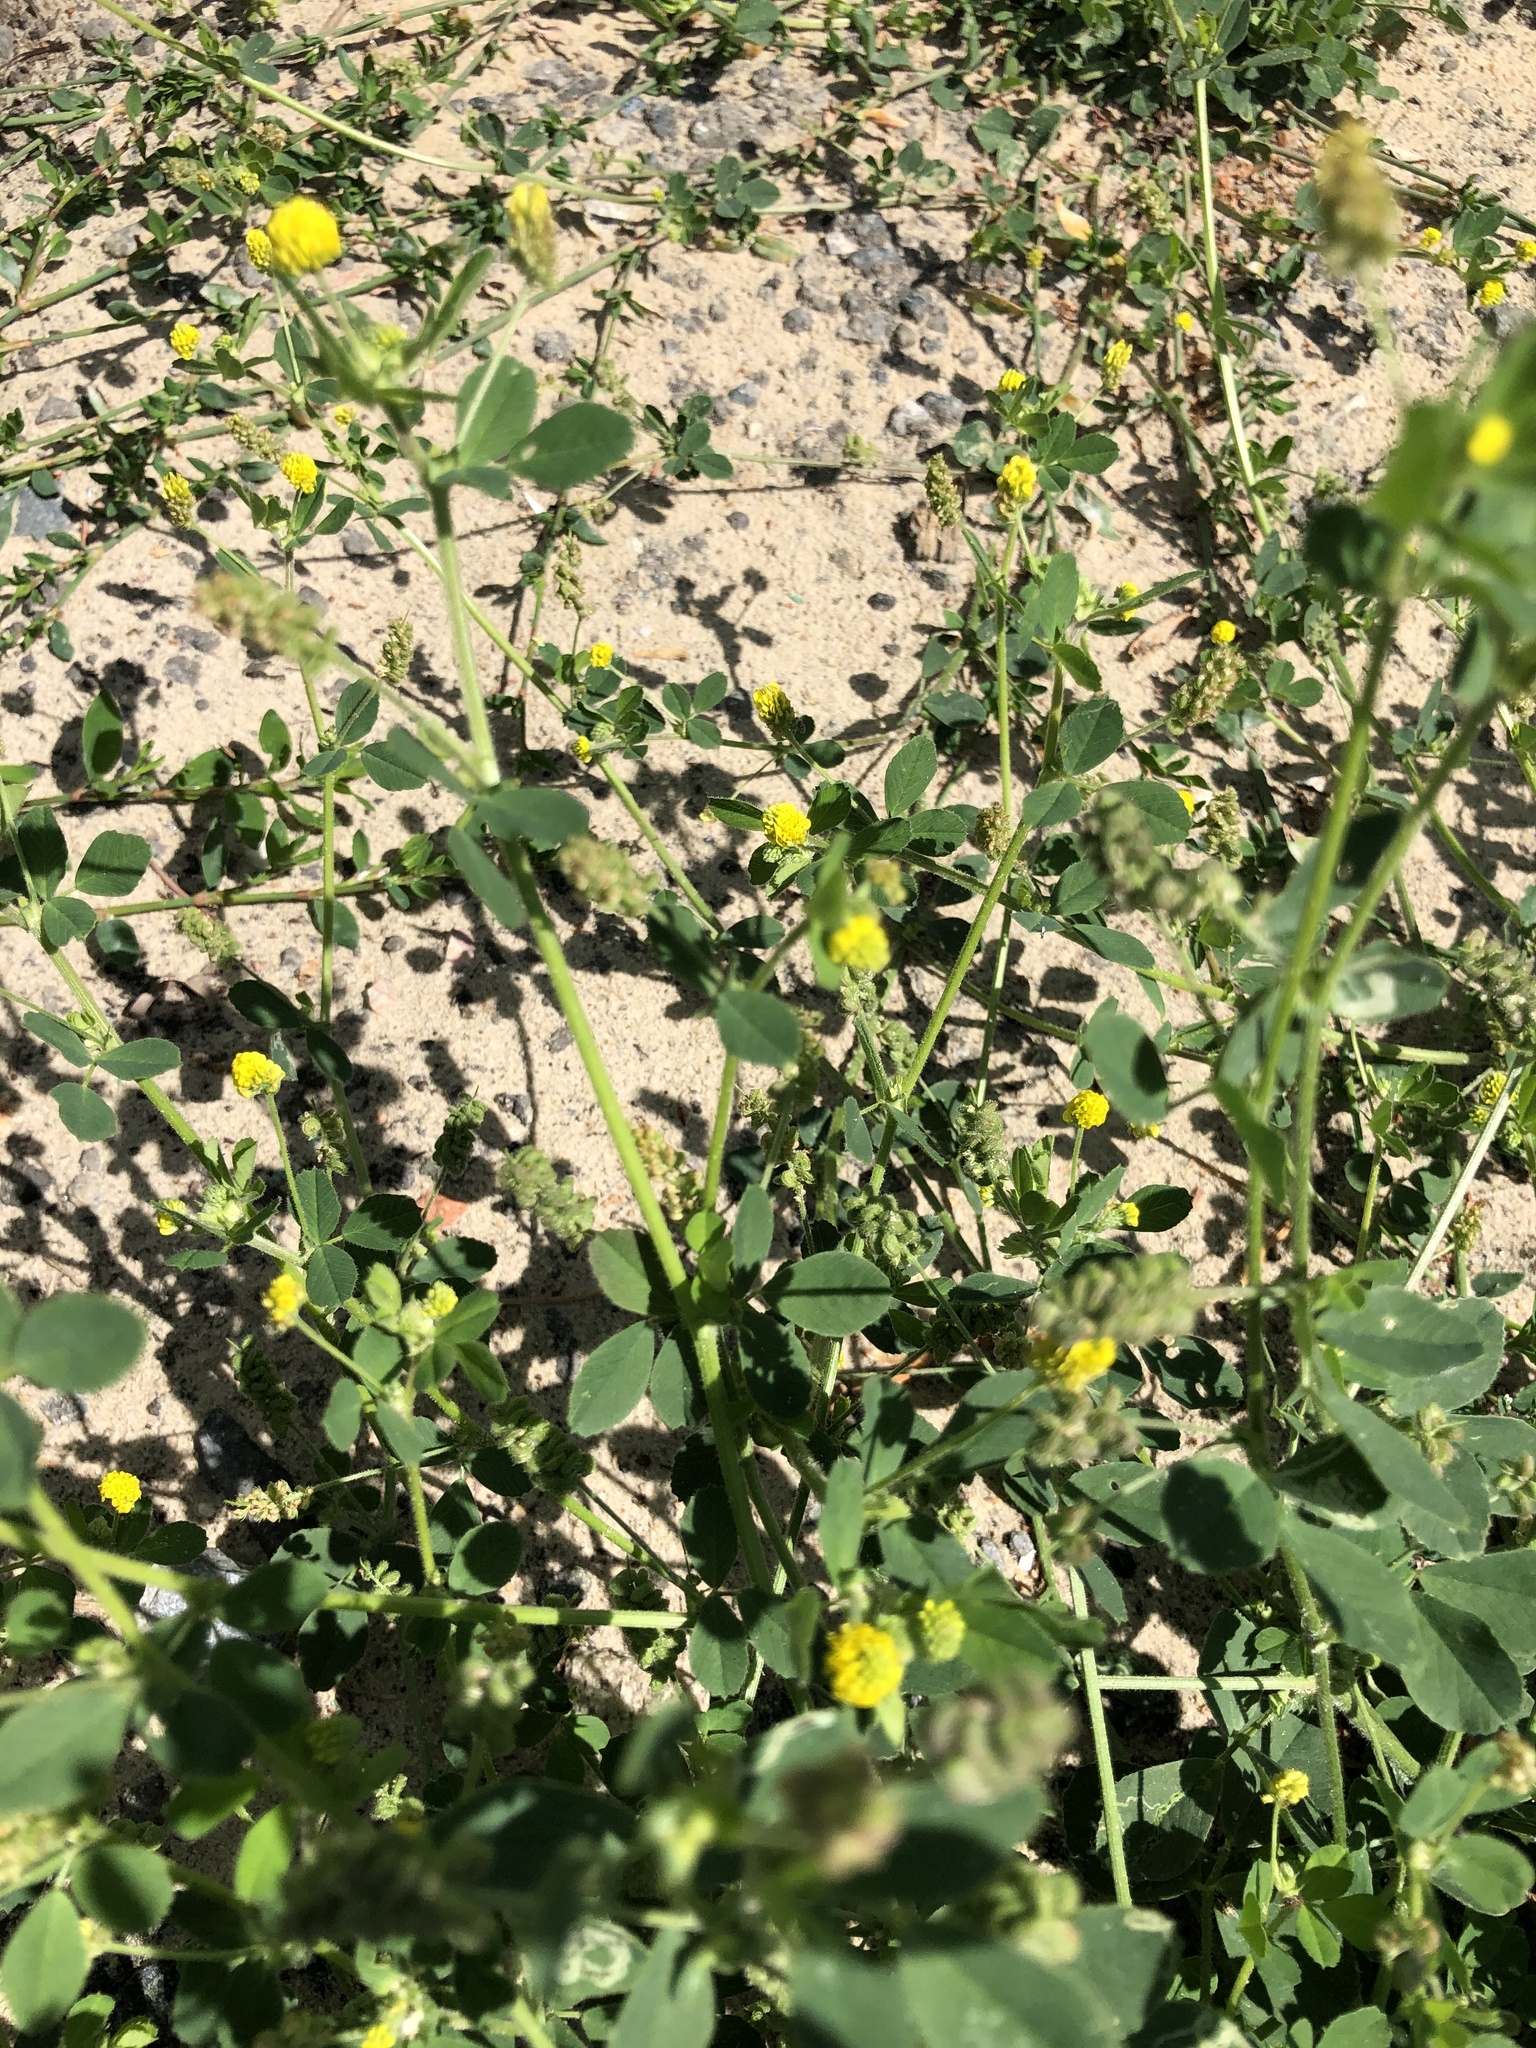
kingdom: Plantae
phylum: Tracheophyta
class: Magnoliopsida
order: Fabales
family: Fabaceae
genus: Medicago
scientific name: Medicago lupulina
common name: Black medick
